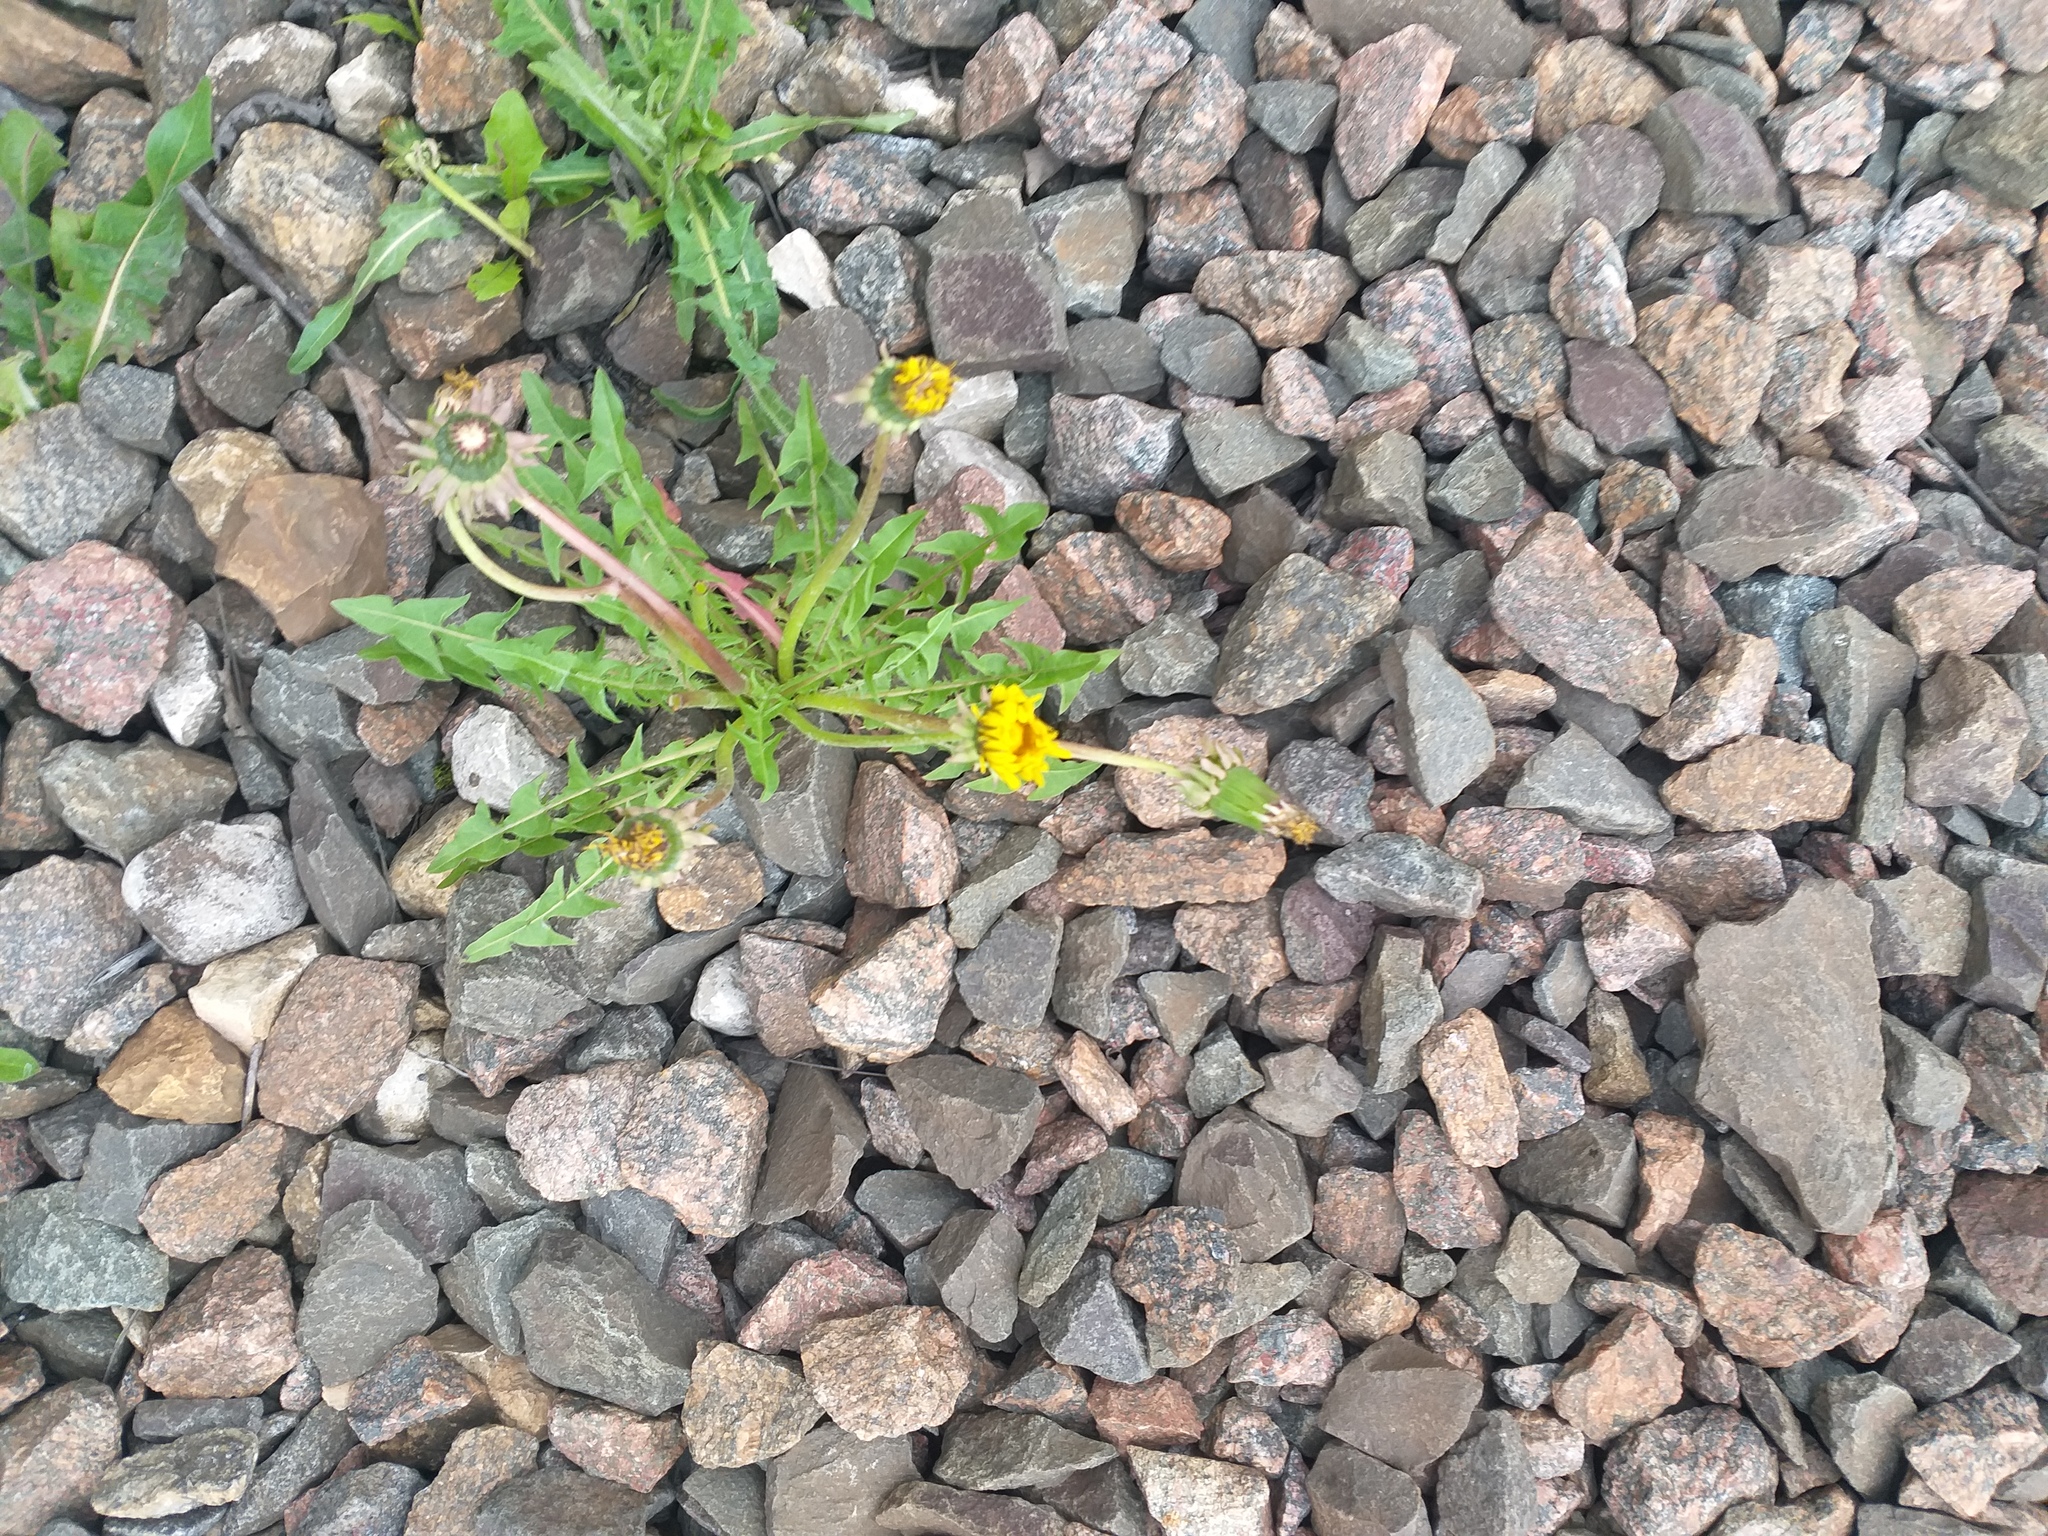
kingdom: Plantae
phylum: Tracheophyta
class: Magnoliopsida
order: Asterales
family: Asteraceae
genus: Taraxacum
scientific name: Taraxacum officinale
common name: Common dandelion
